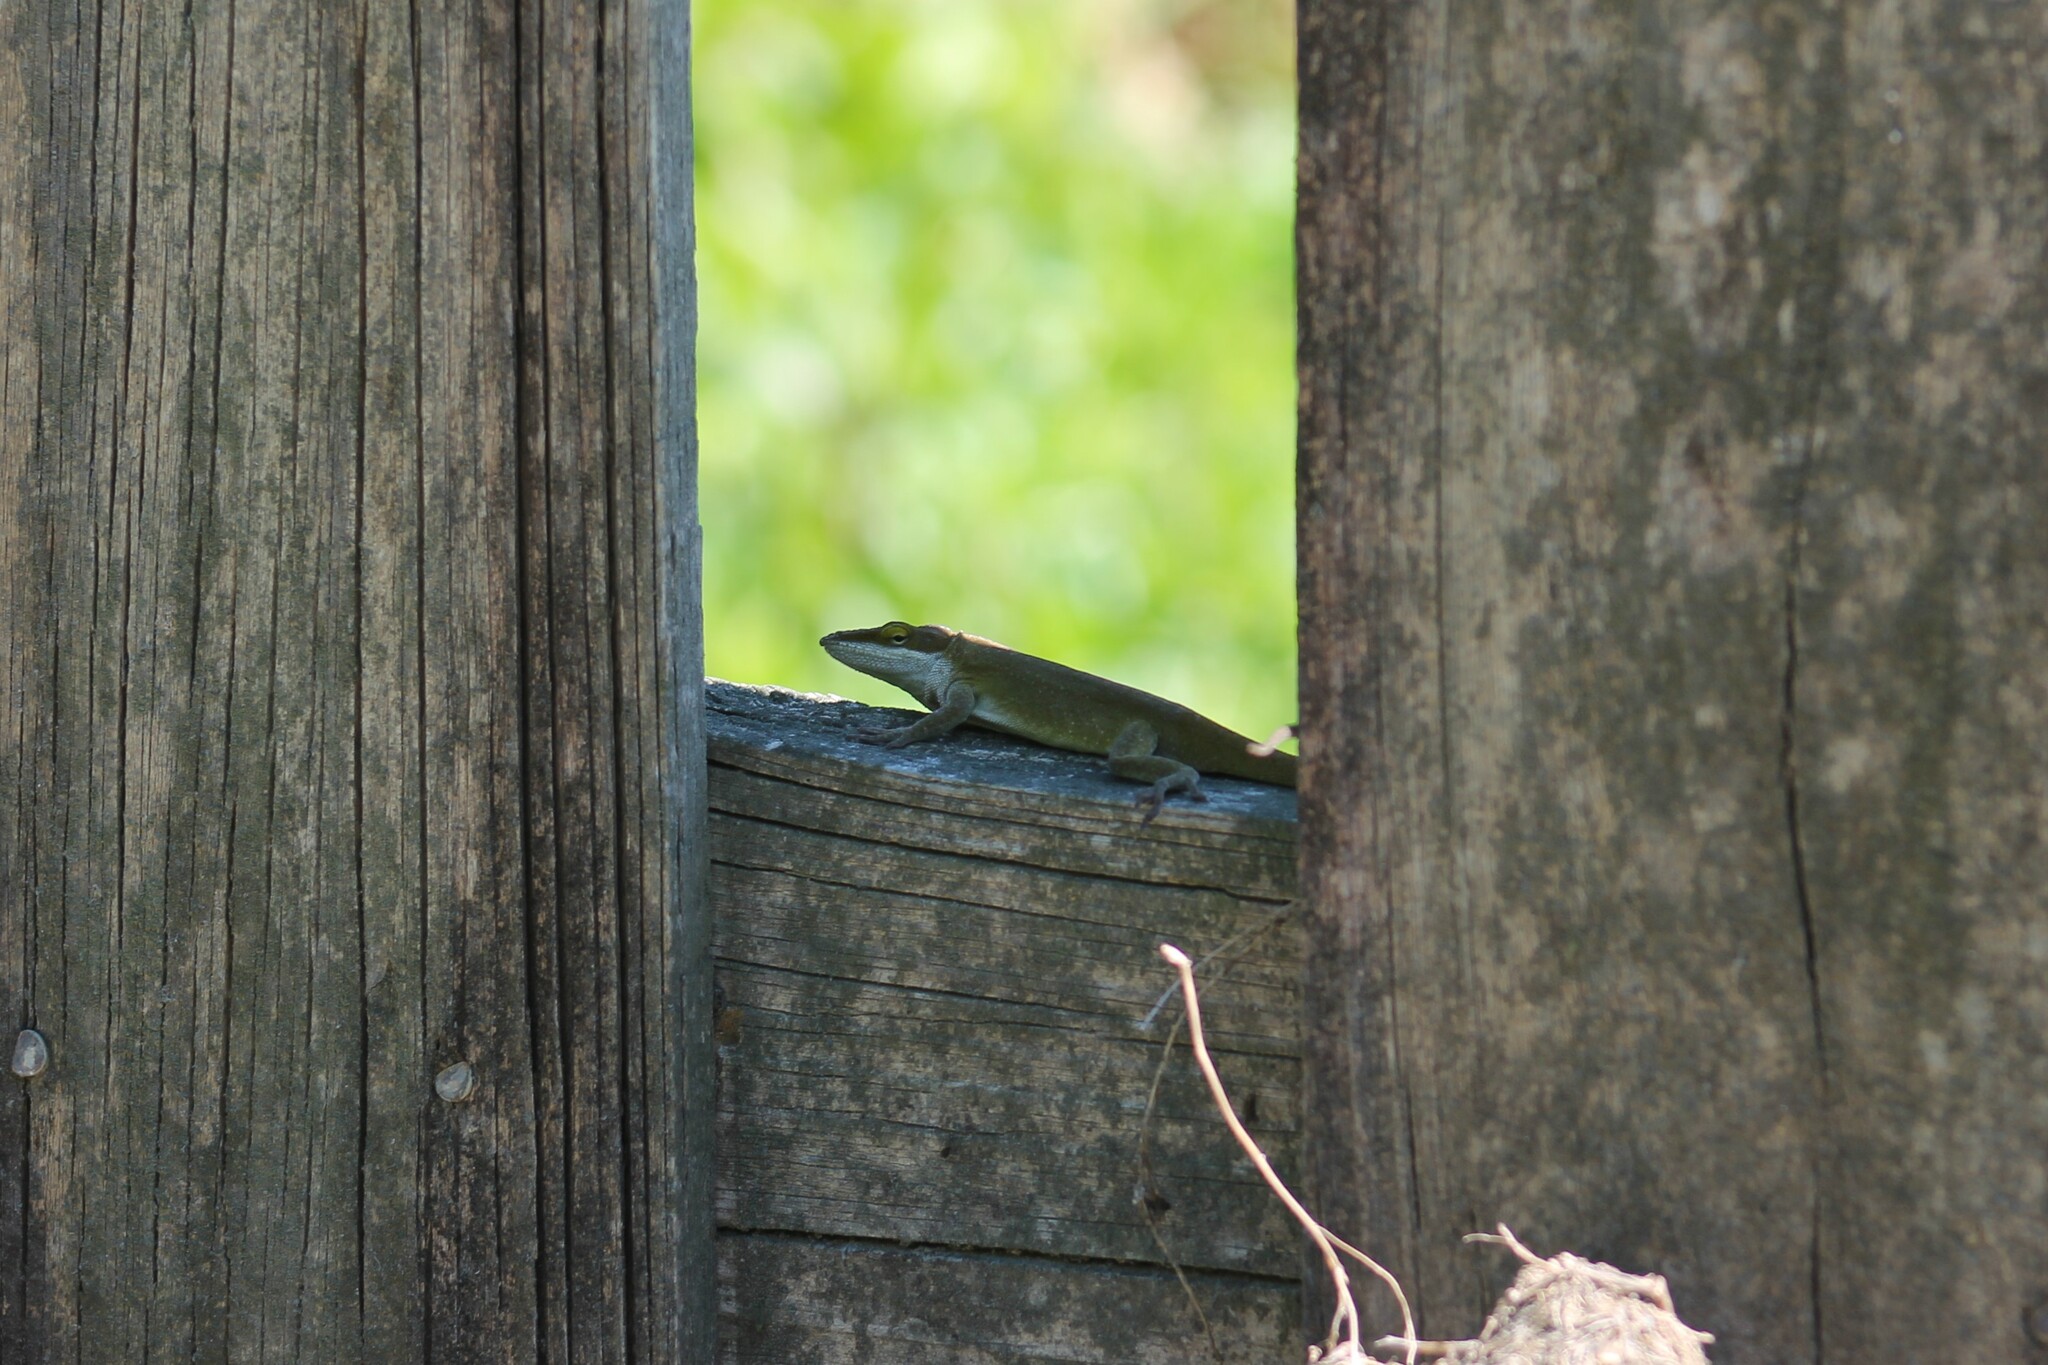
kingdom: Animalia
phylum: Chordata
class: Squamata
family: Dactyloidae
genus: Anolis
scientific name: Anolis carolinensis
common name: Green anole
